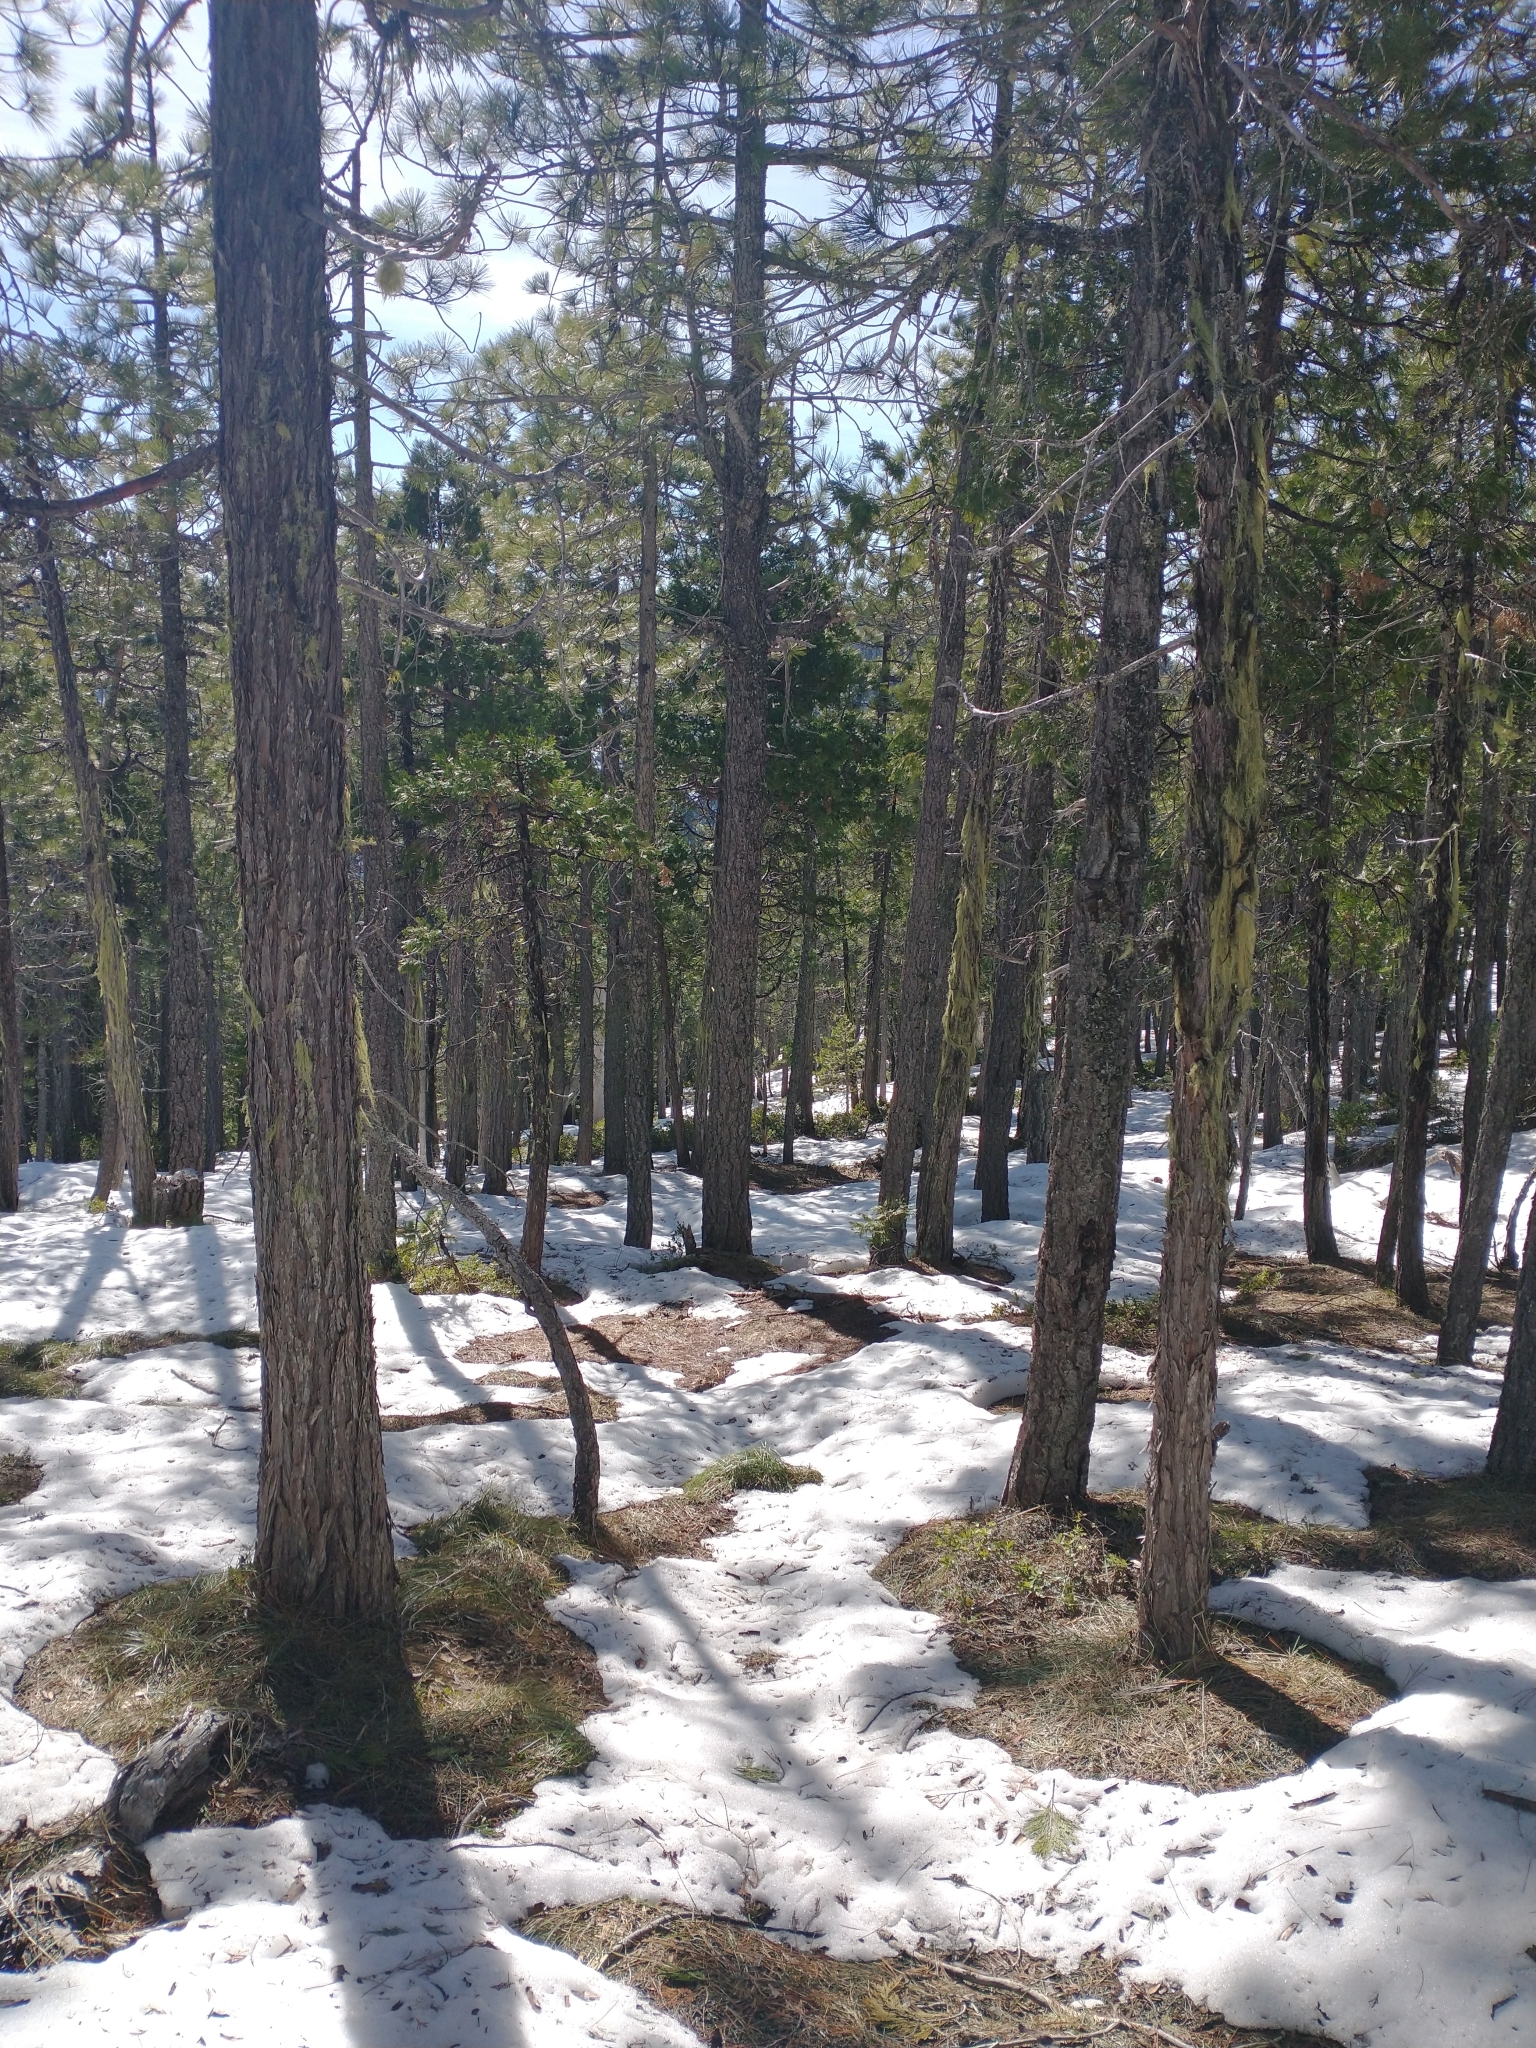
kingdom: Plantae
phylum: Tracheophyta
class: Pinopsida
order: Pinales
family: Cupressaceae
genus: Calocedrus
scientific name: Calocedrus decurrens
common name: Californian incense-cedar
